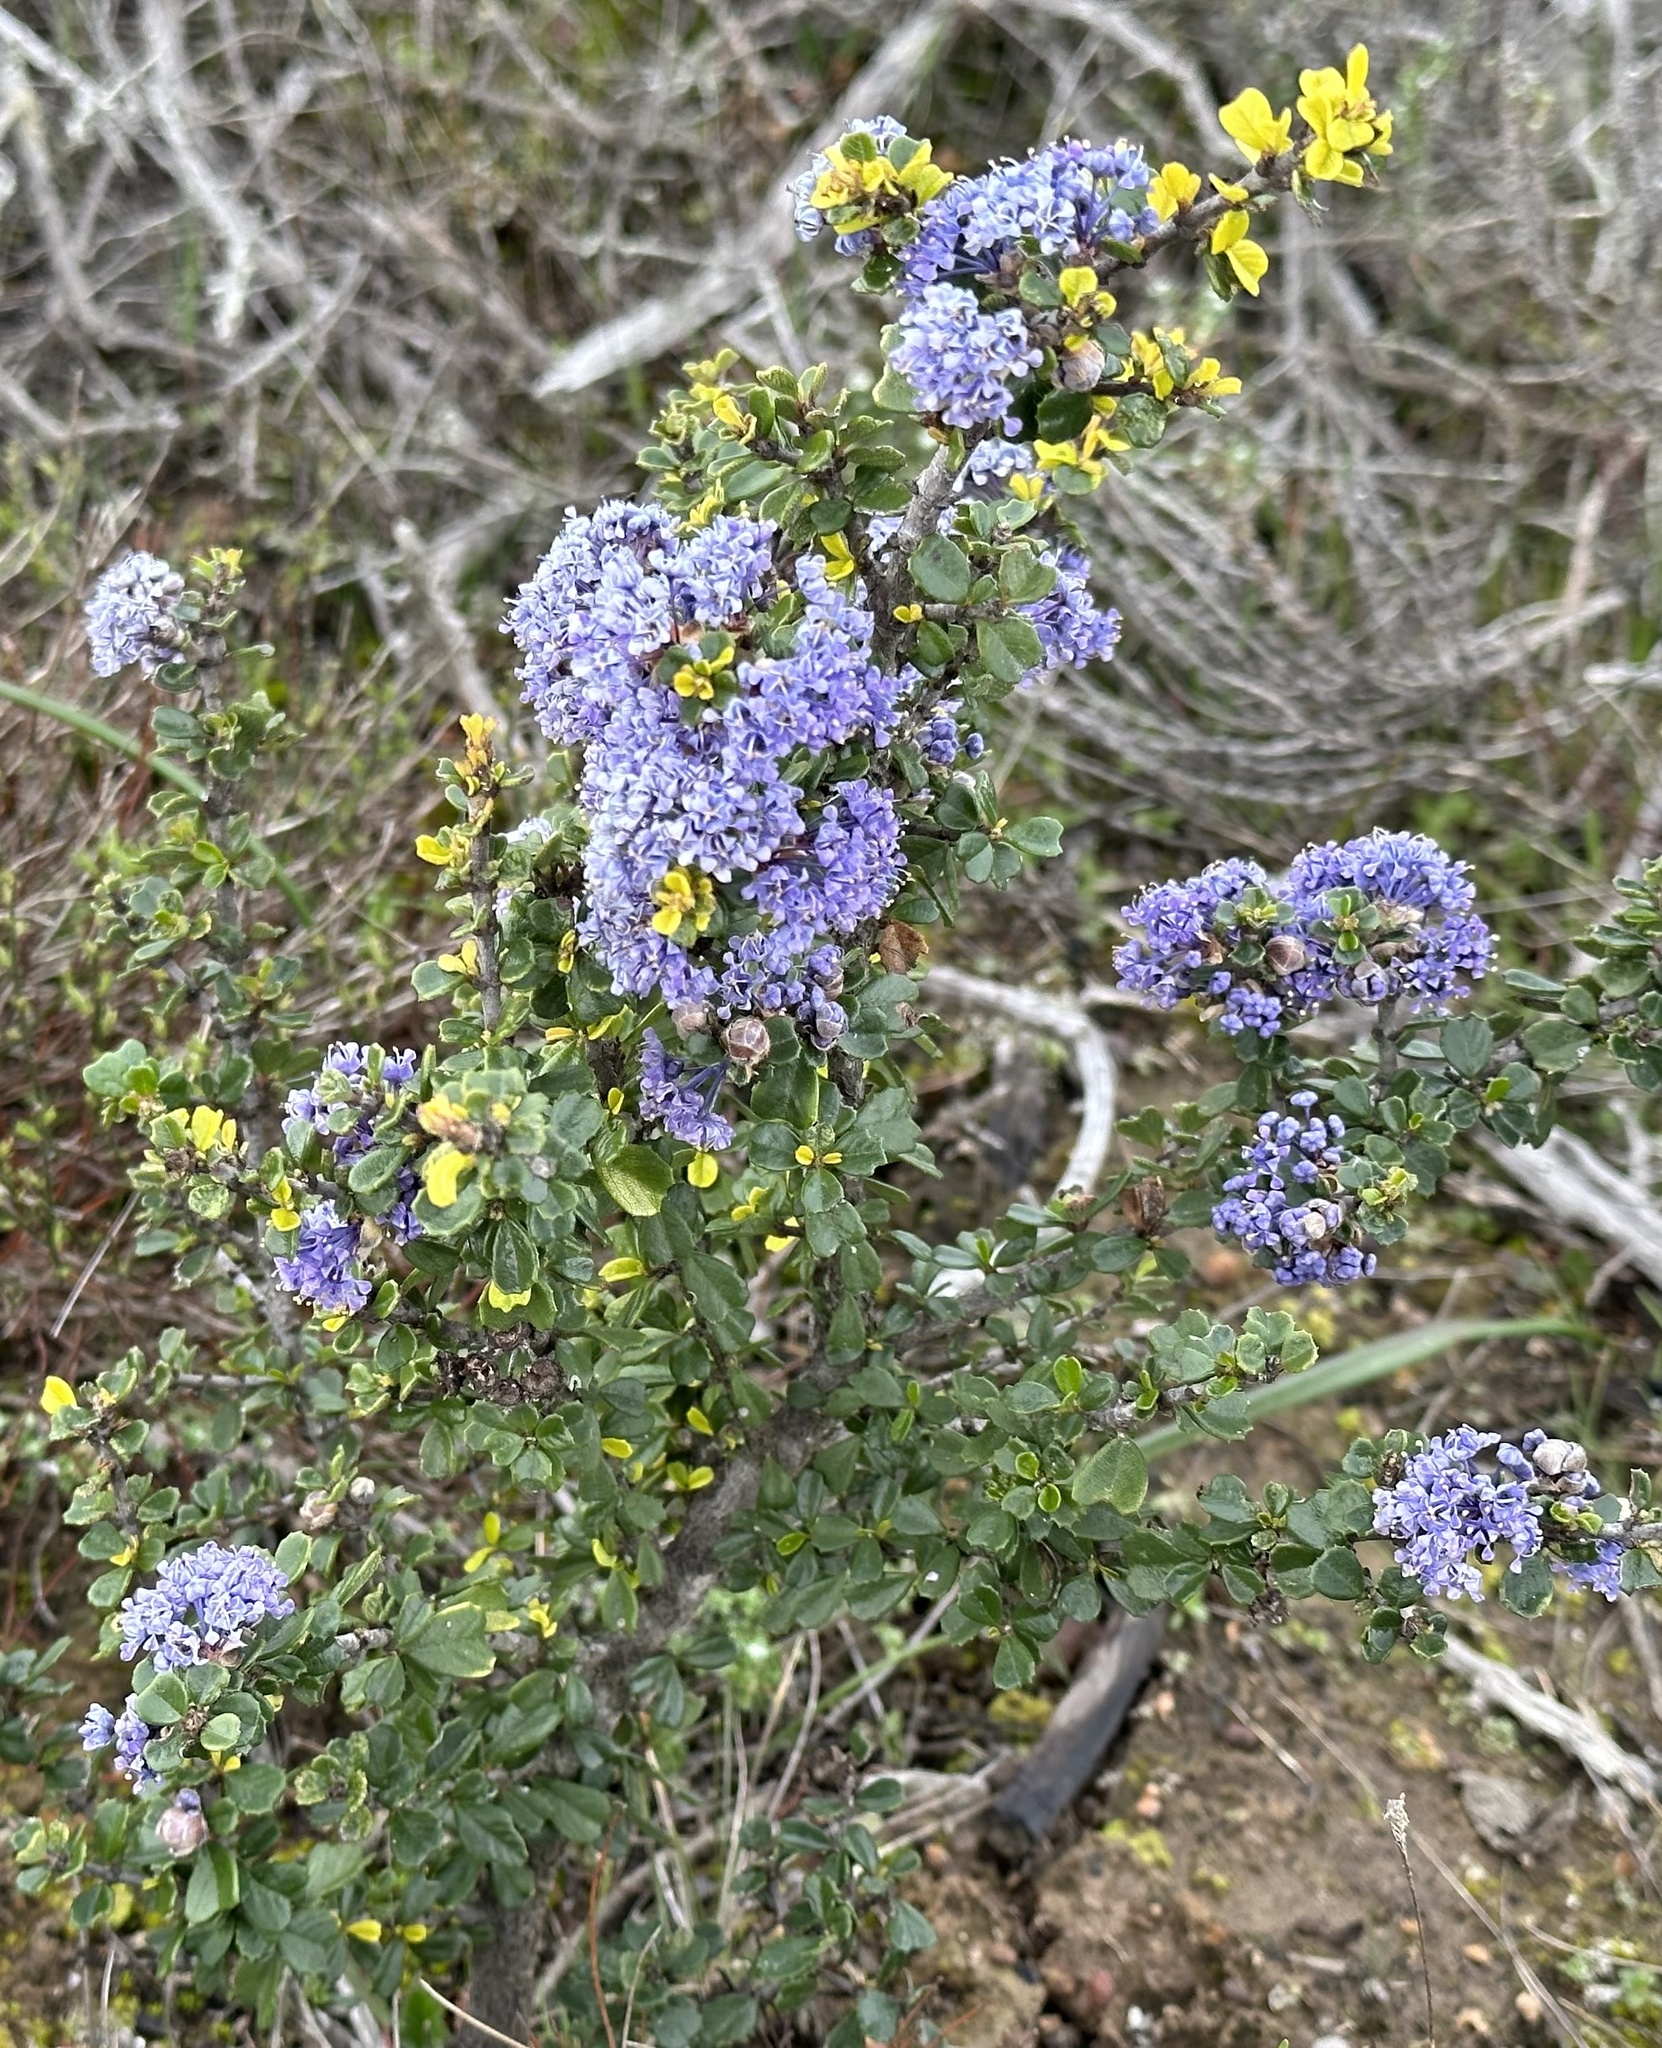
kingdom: Plantae
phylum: Tracheophyta
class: Magnoliopsida
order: Rosales
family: Rhamnaceae
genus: Ceanothus
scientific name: Ceanothus cuneatus
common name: Cuneate ceanothus
